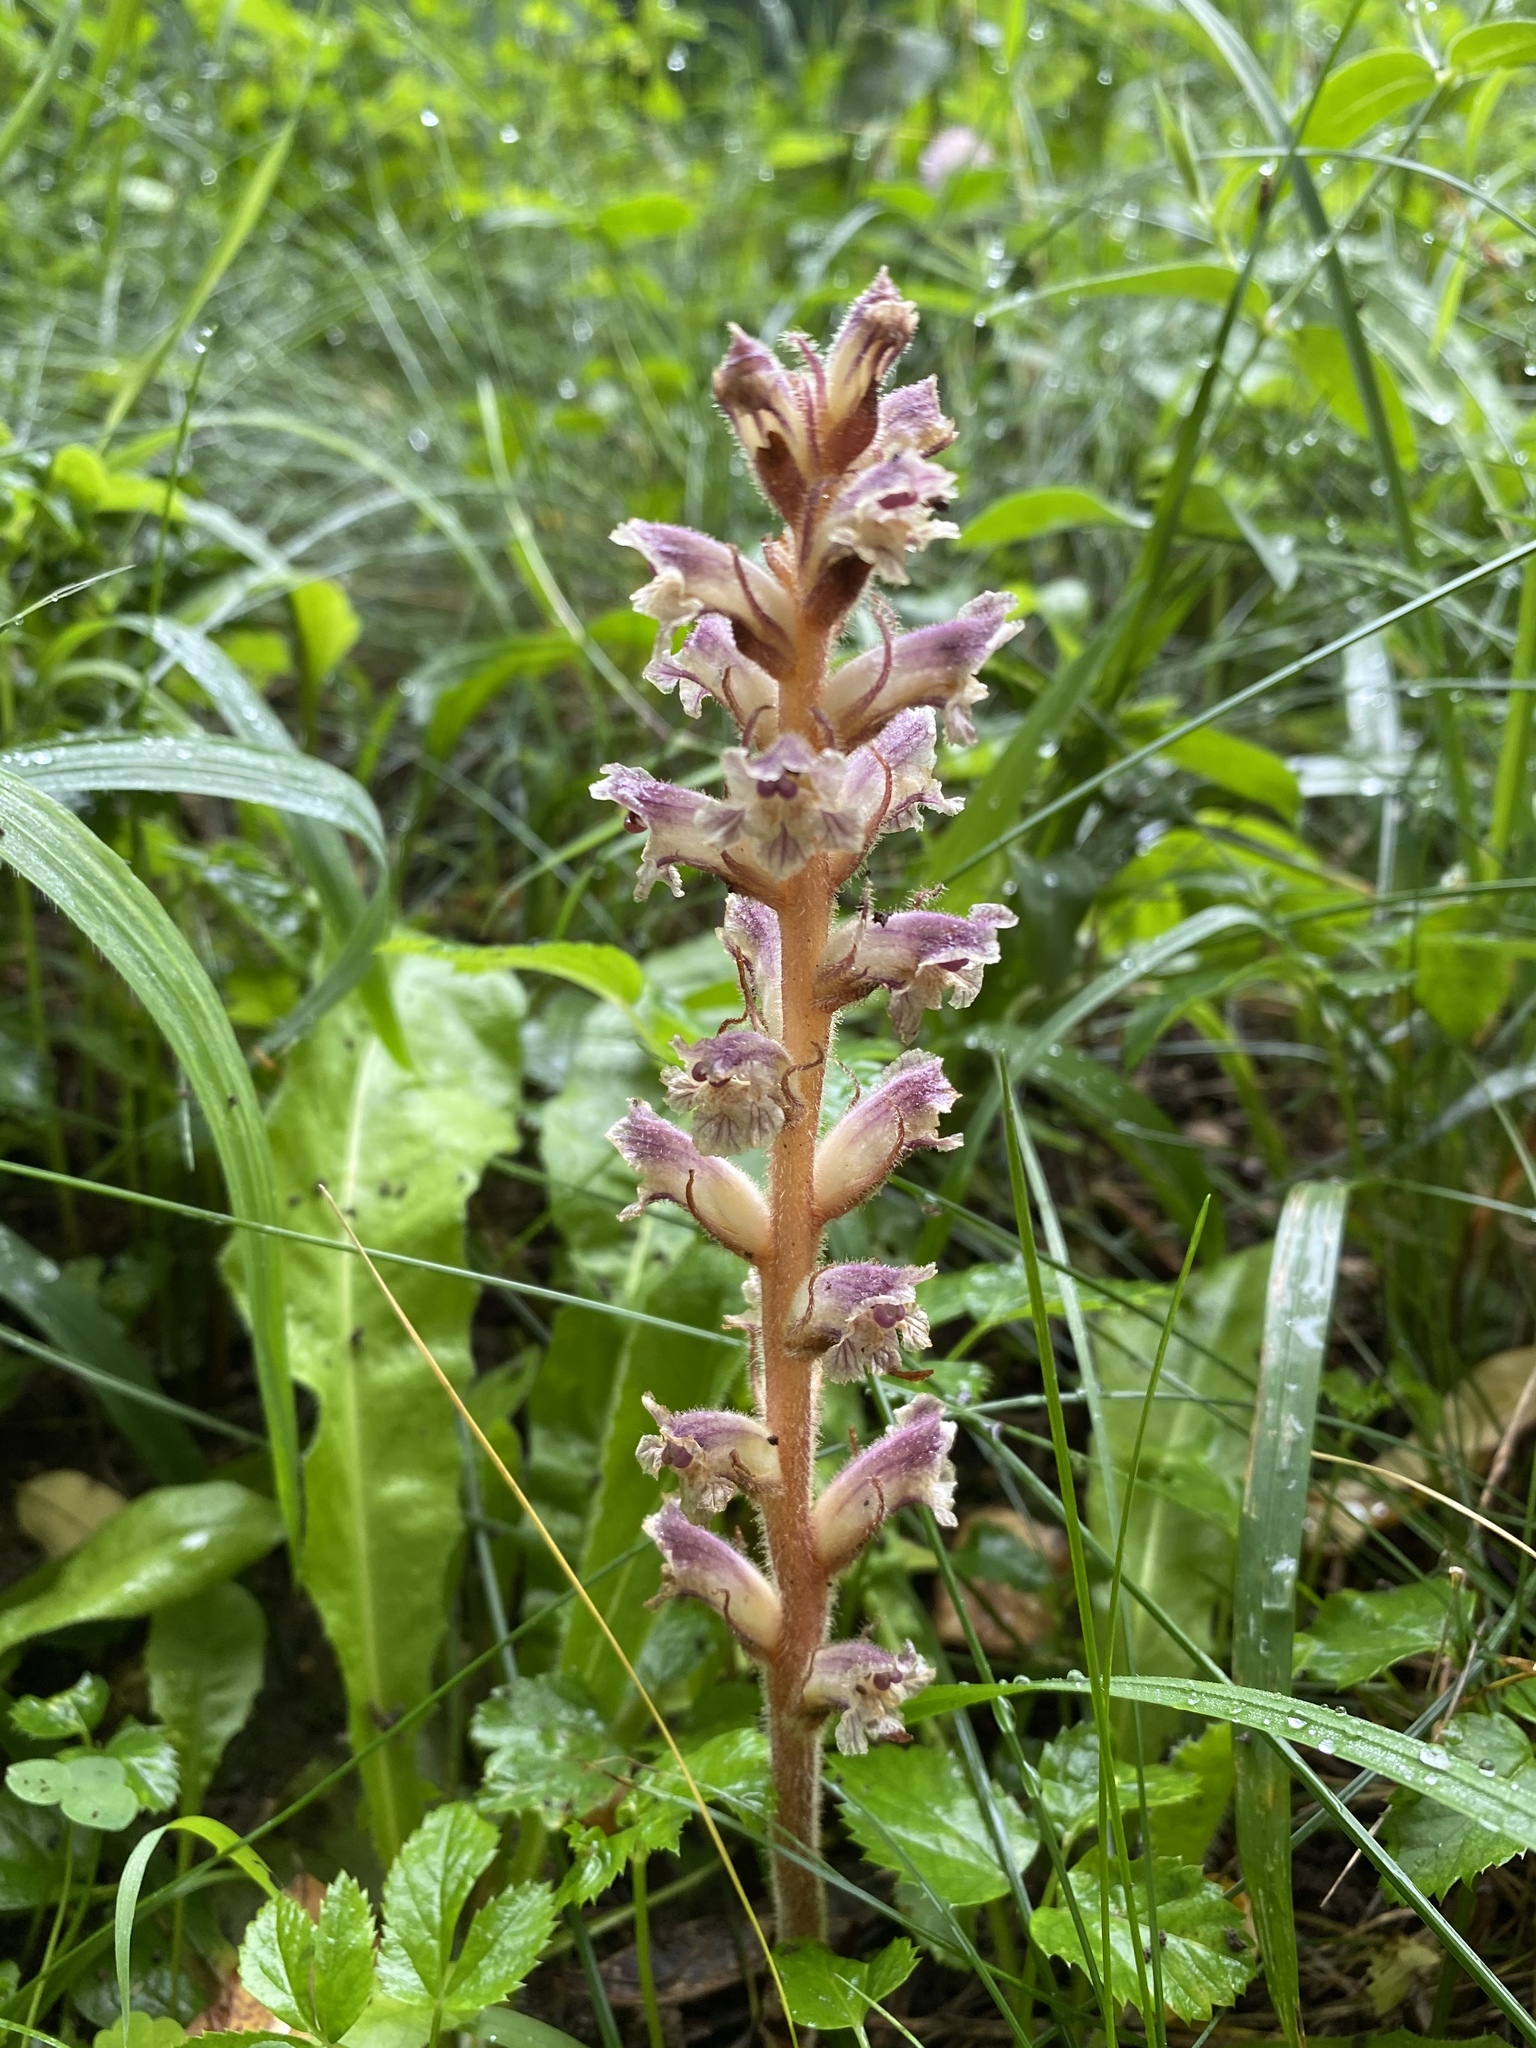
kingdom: Plantae
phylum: Tracheophyta
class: Magnoliopsida
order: Lamiales
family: Orobanchaceae
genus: Orobanche
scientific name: Orobanche minor
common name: Common broomrape
